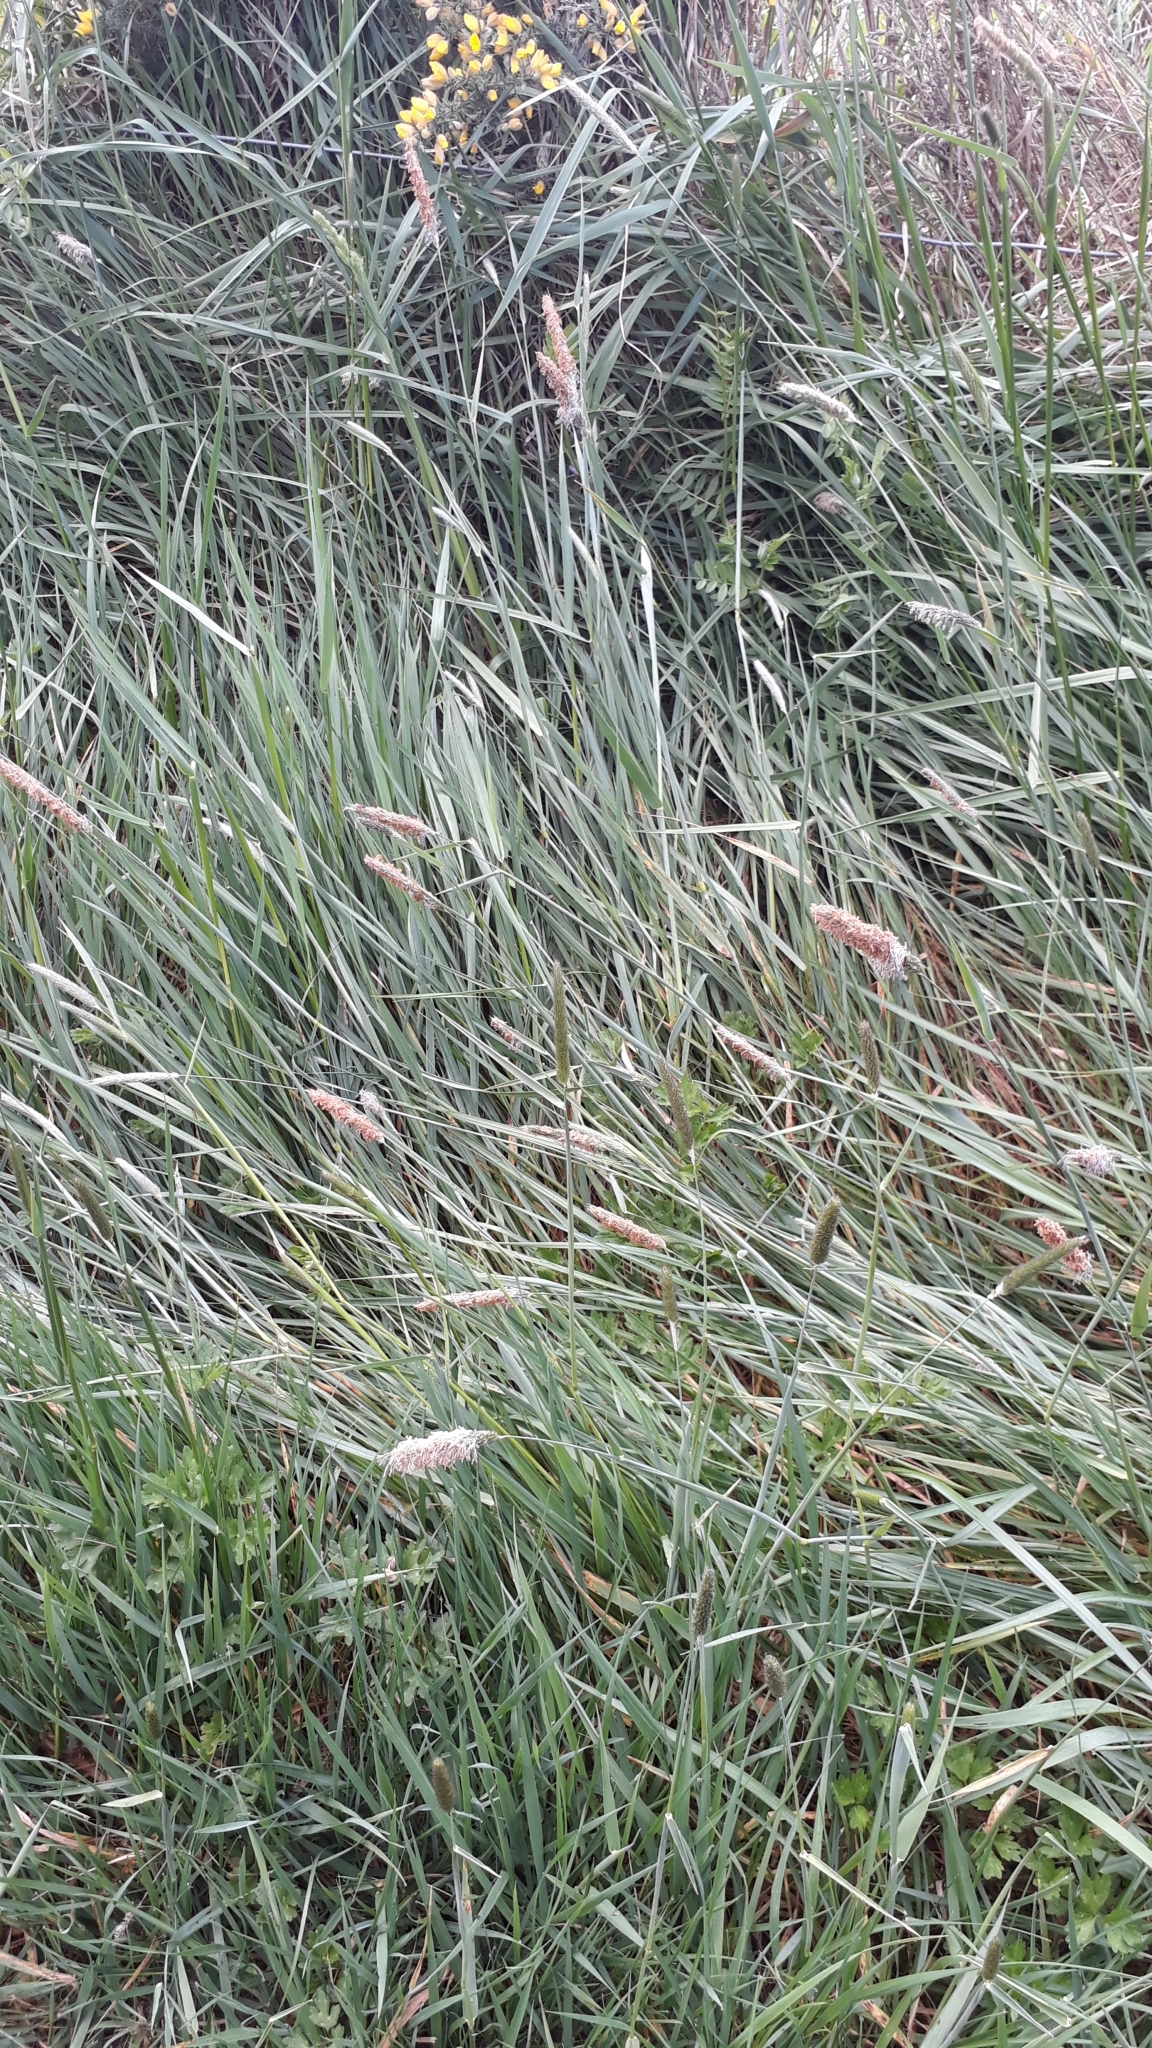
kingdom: Plantae
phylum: Tracheophyta
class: Liliopsida
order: Poales
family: Poaceae
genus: Phleum
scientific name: Phleum pratense
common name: Timothy grass
